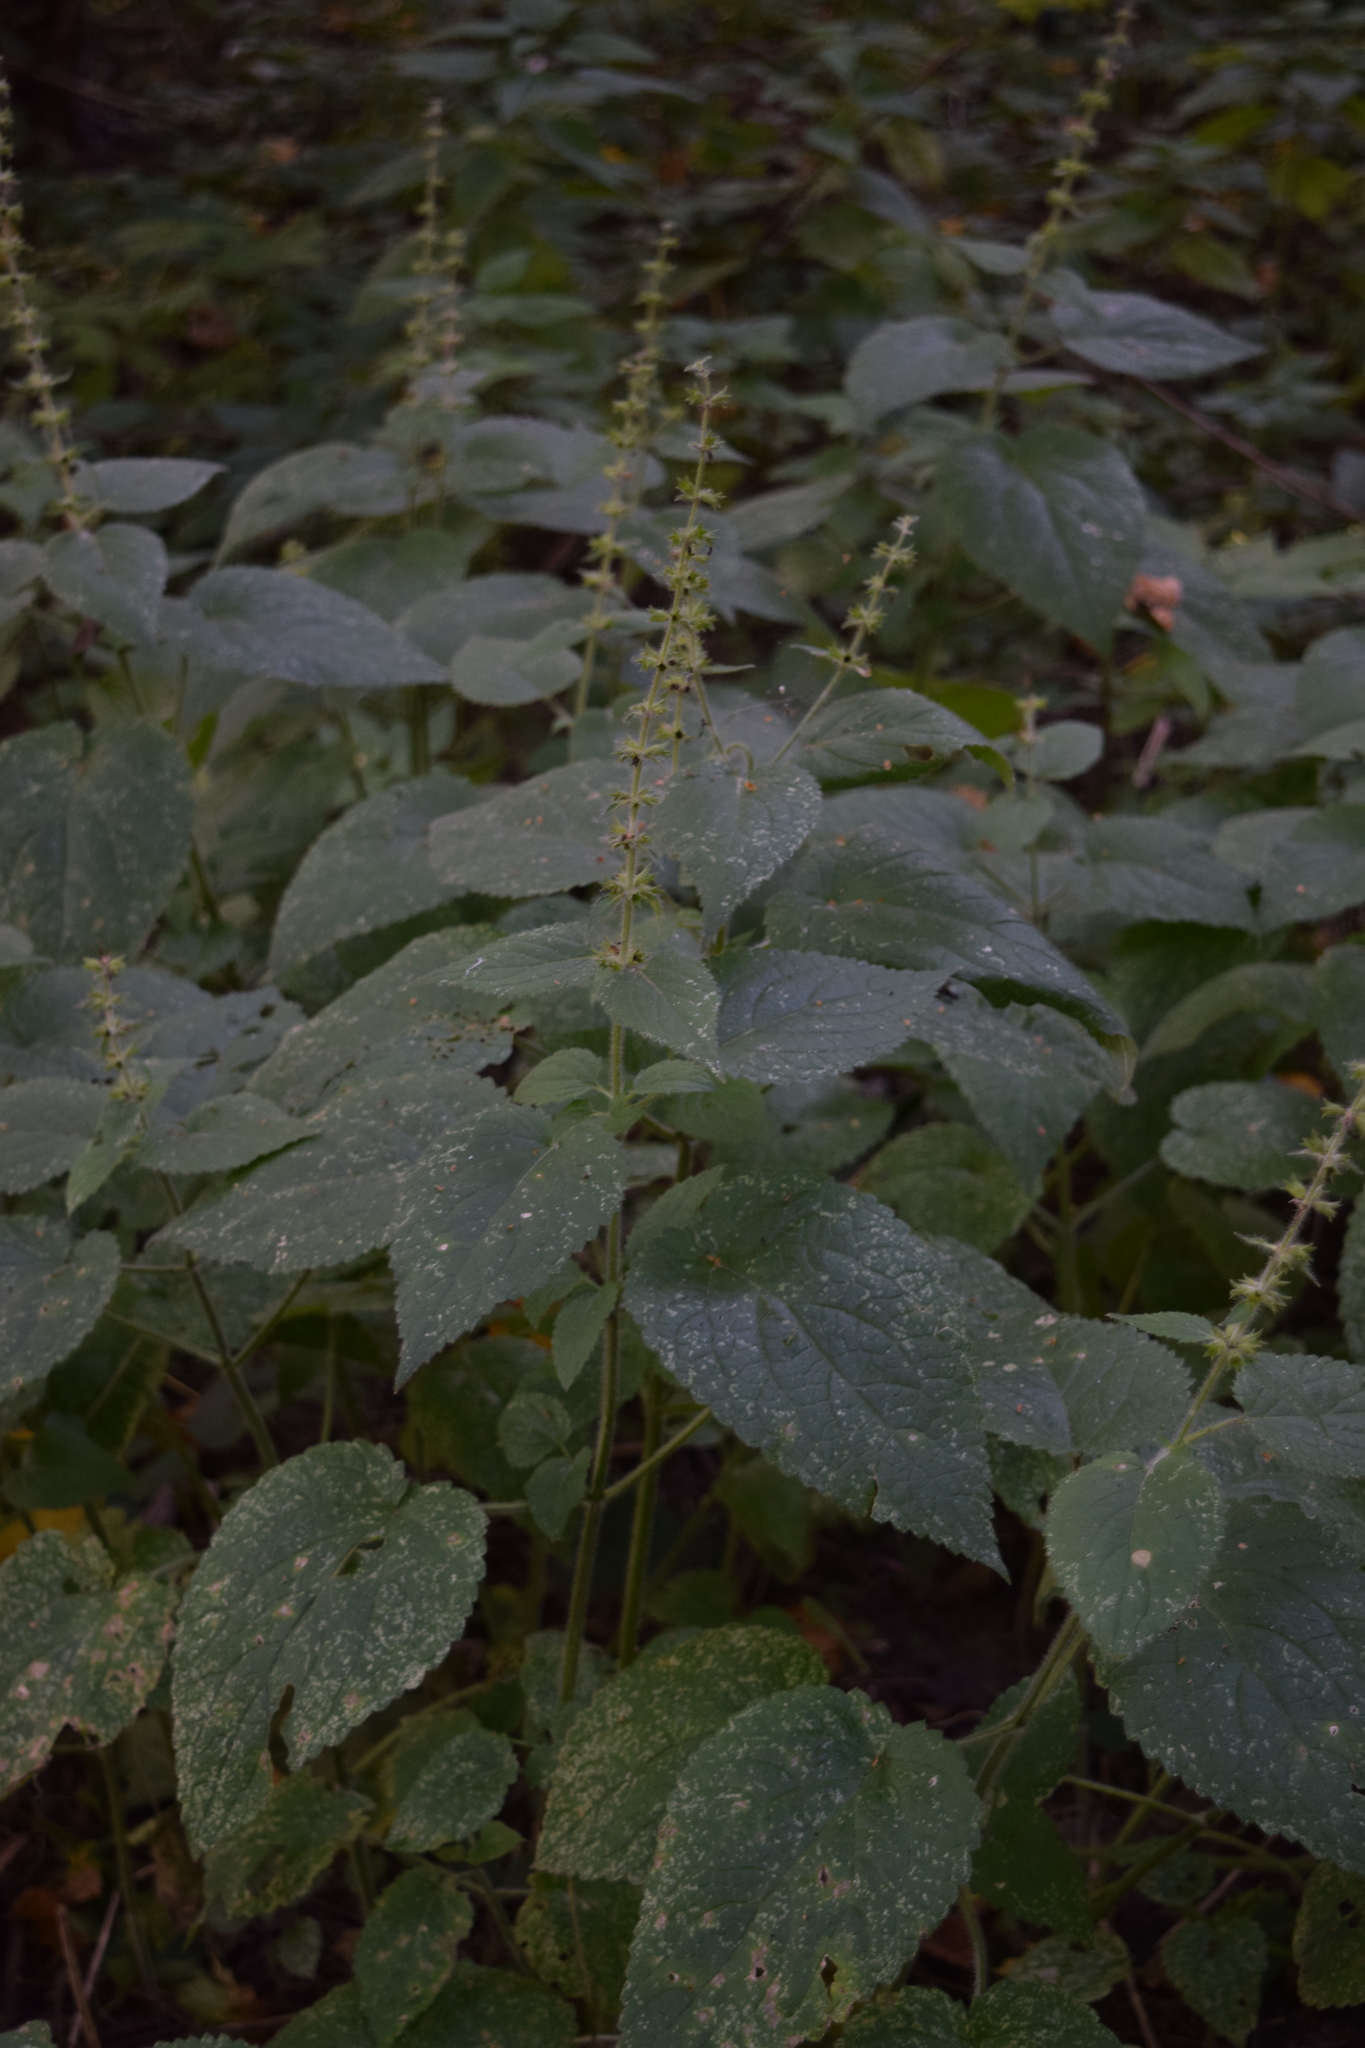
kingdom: Plantae
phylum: Tracheophyta
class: Magnoliopsida
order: Lamiales
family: Lamiaceae
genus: Stachys
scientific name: Stachys sylvatica
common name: Hedge woundwort
